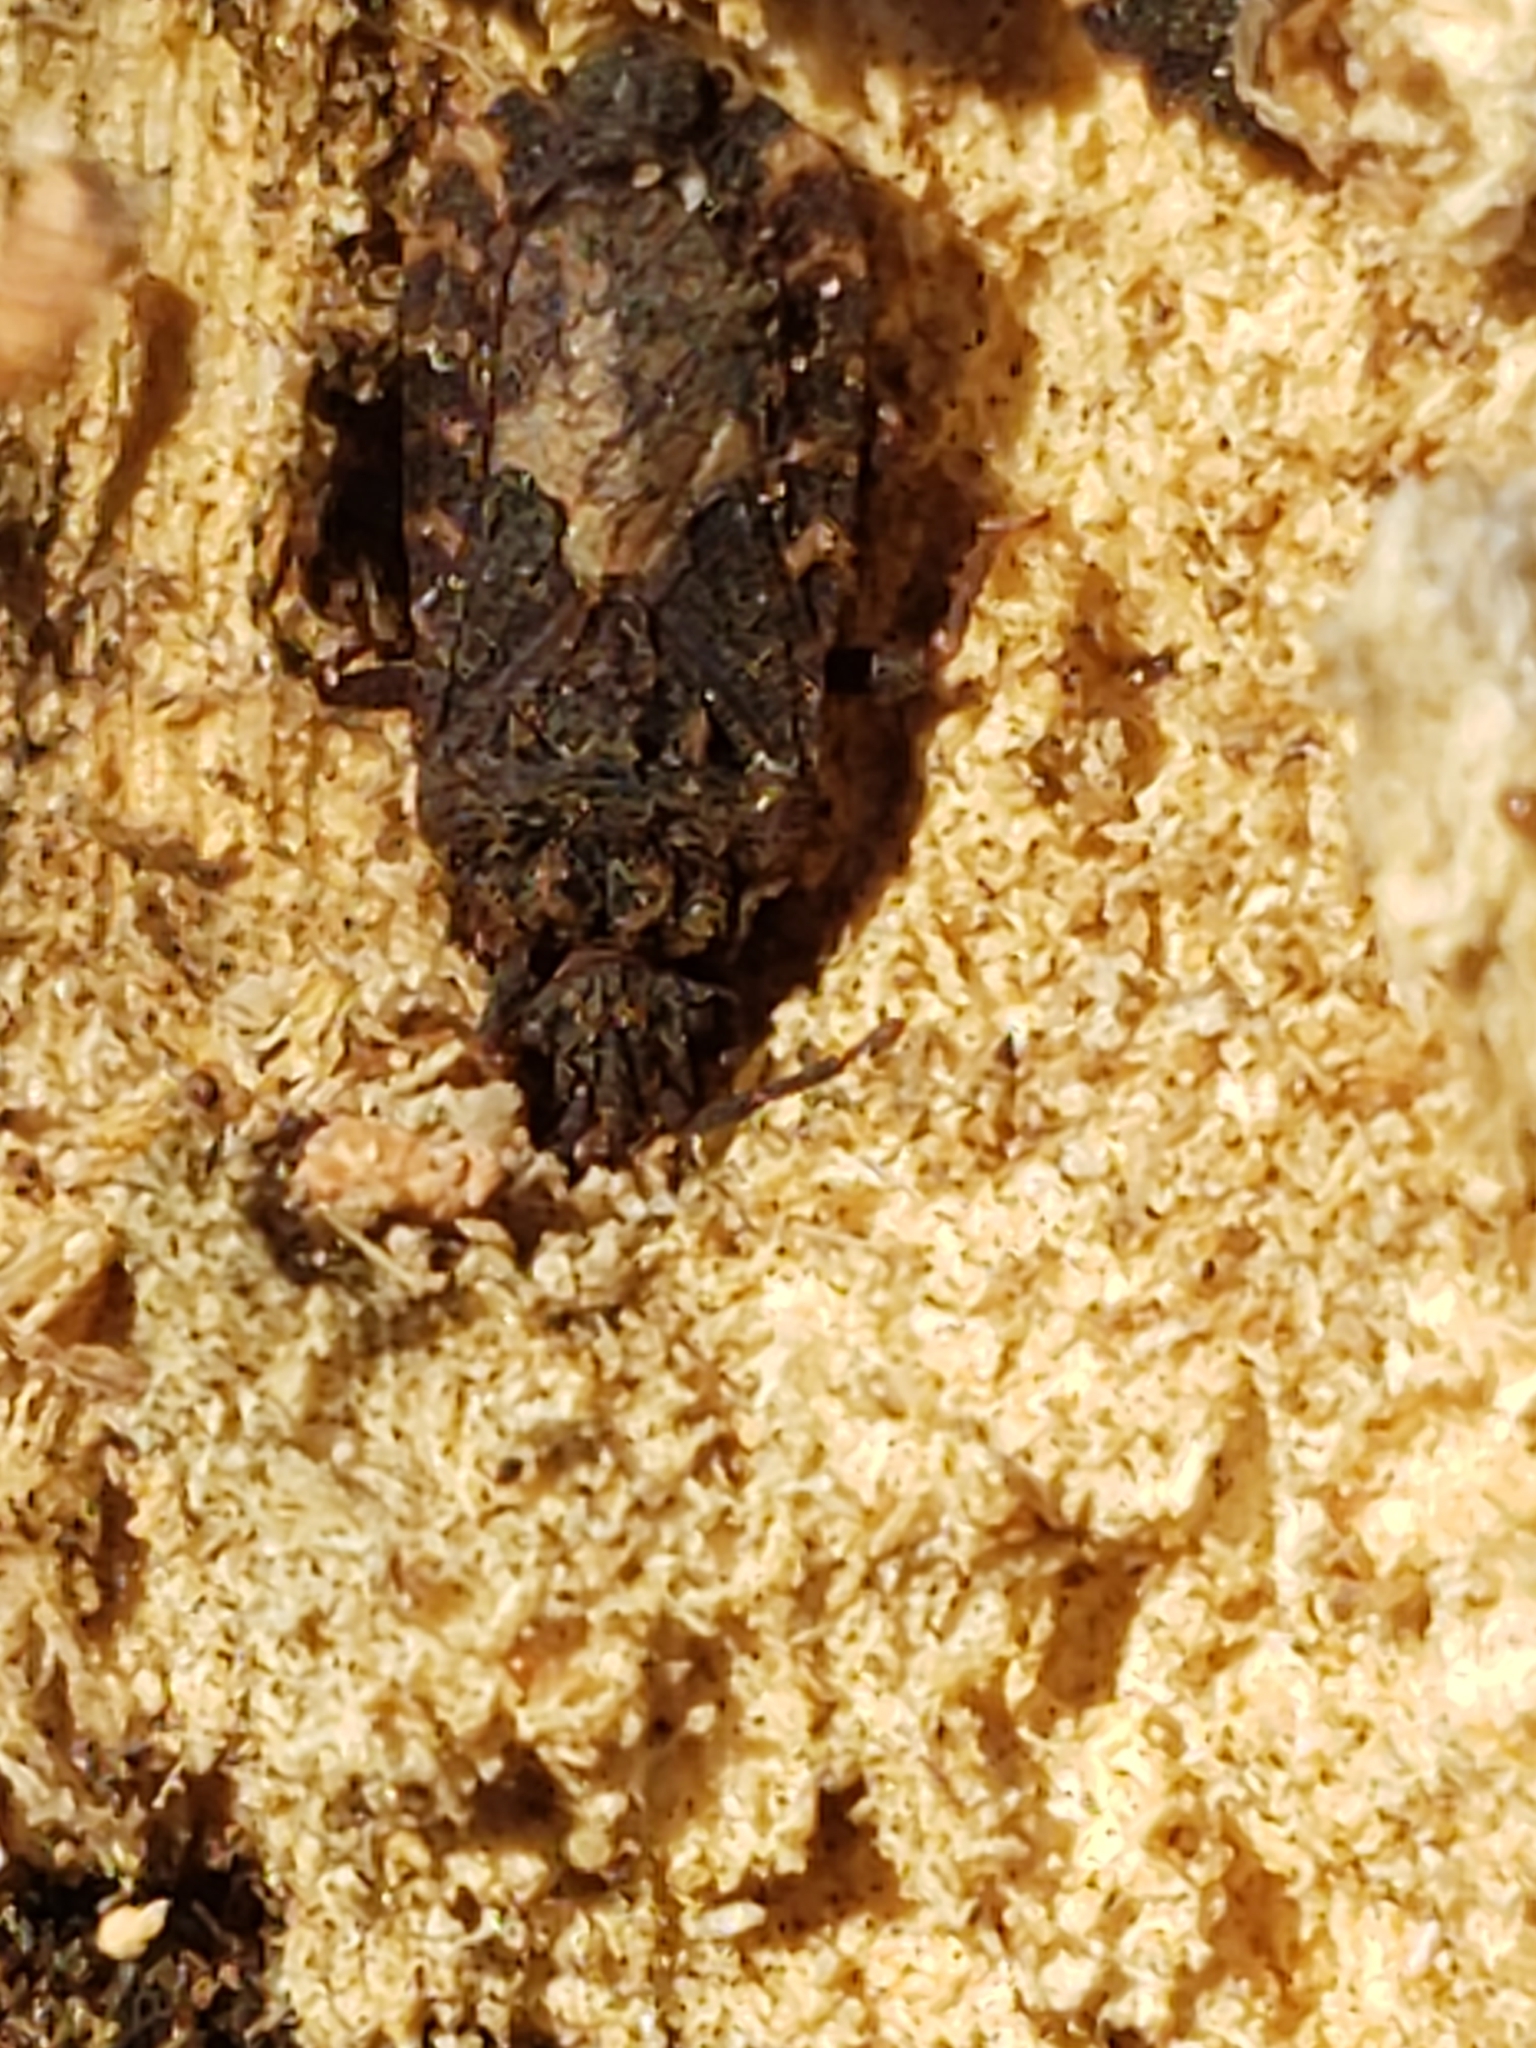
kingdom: Animalia
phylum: Arthropoda
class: Insecta
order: Hemiptera
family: Aradidae
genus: Mezira
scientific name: Mezira
